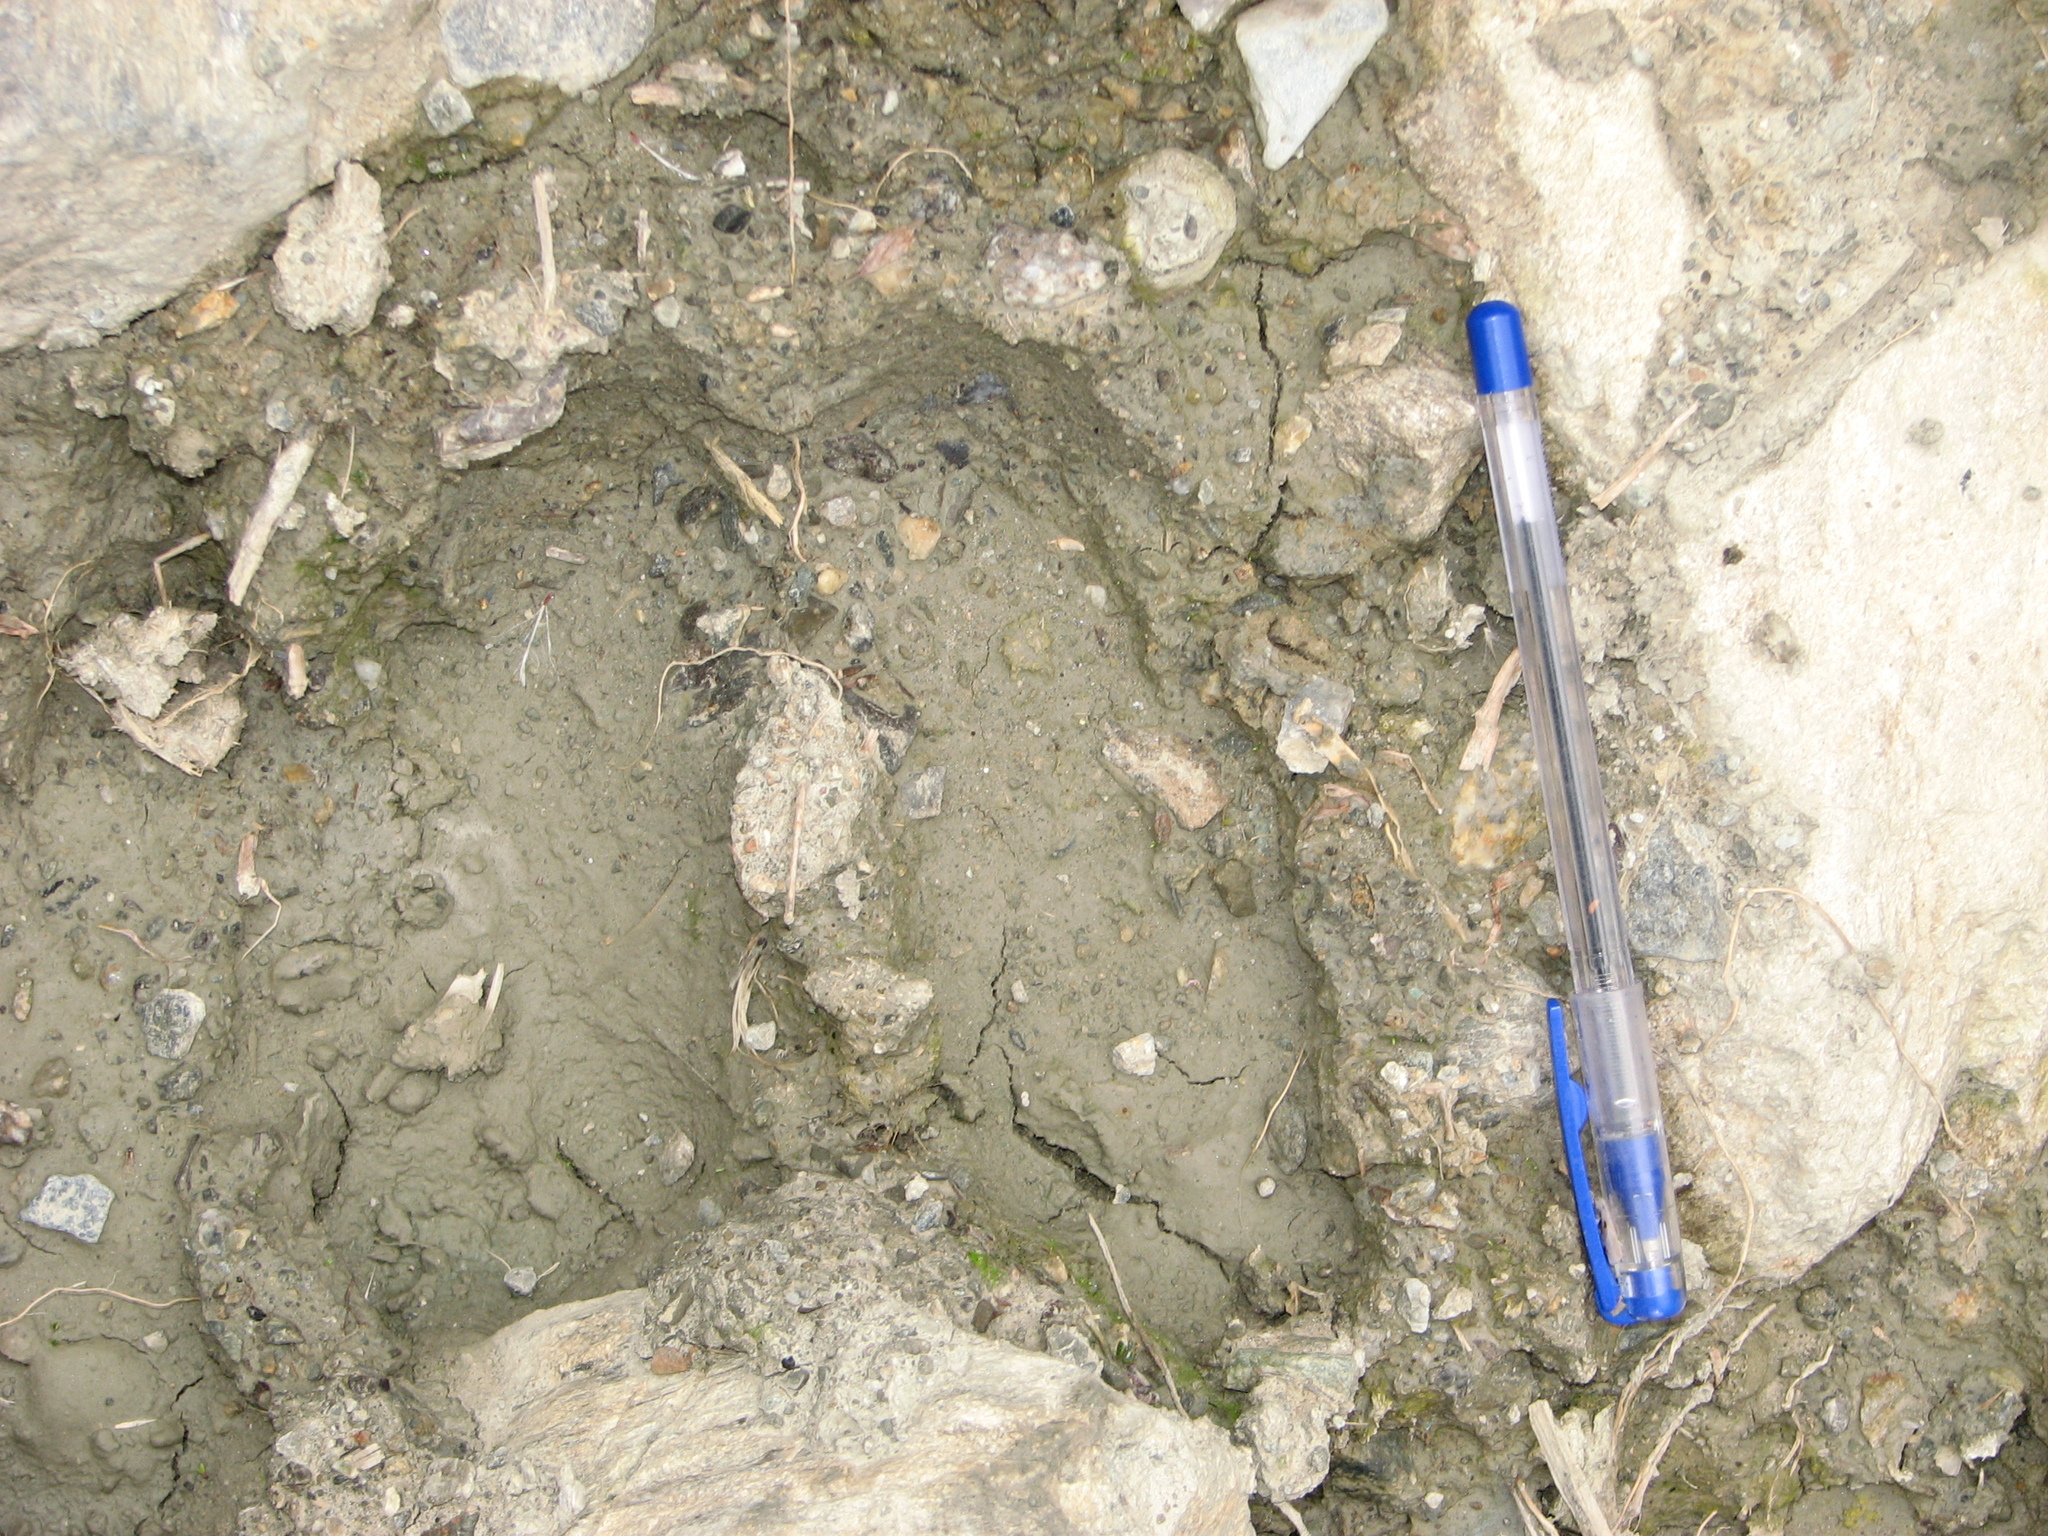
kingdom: Animalia
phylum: Chordata
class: Mammalia
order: Artiodactyla
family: Bovidae
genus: Budorcas
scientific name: Budorcas taxicolor
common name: Takin
